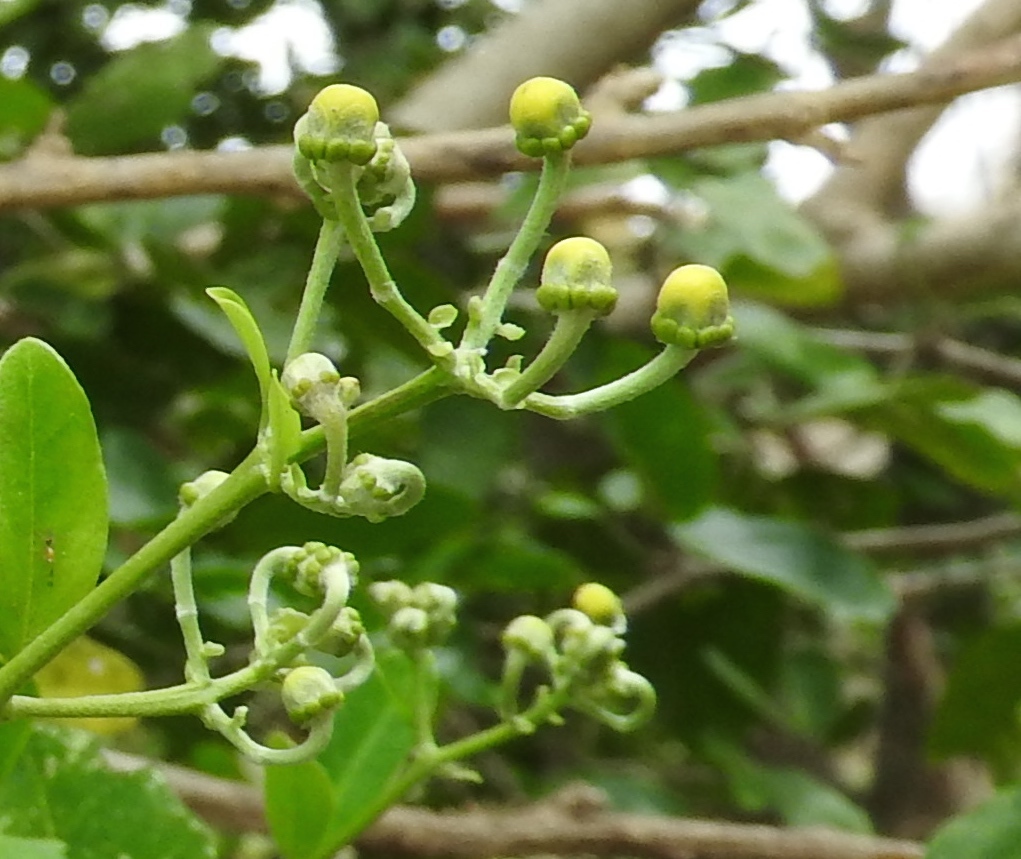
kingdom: Plantae
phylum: Tracheophyta
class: Magnoliopsida
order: Malpighiales
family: Malpighiaceae
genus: Callaeum
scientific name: Callaeum macropterum
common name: Mexican butterfly-vine
